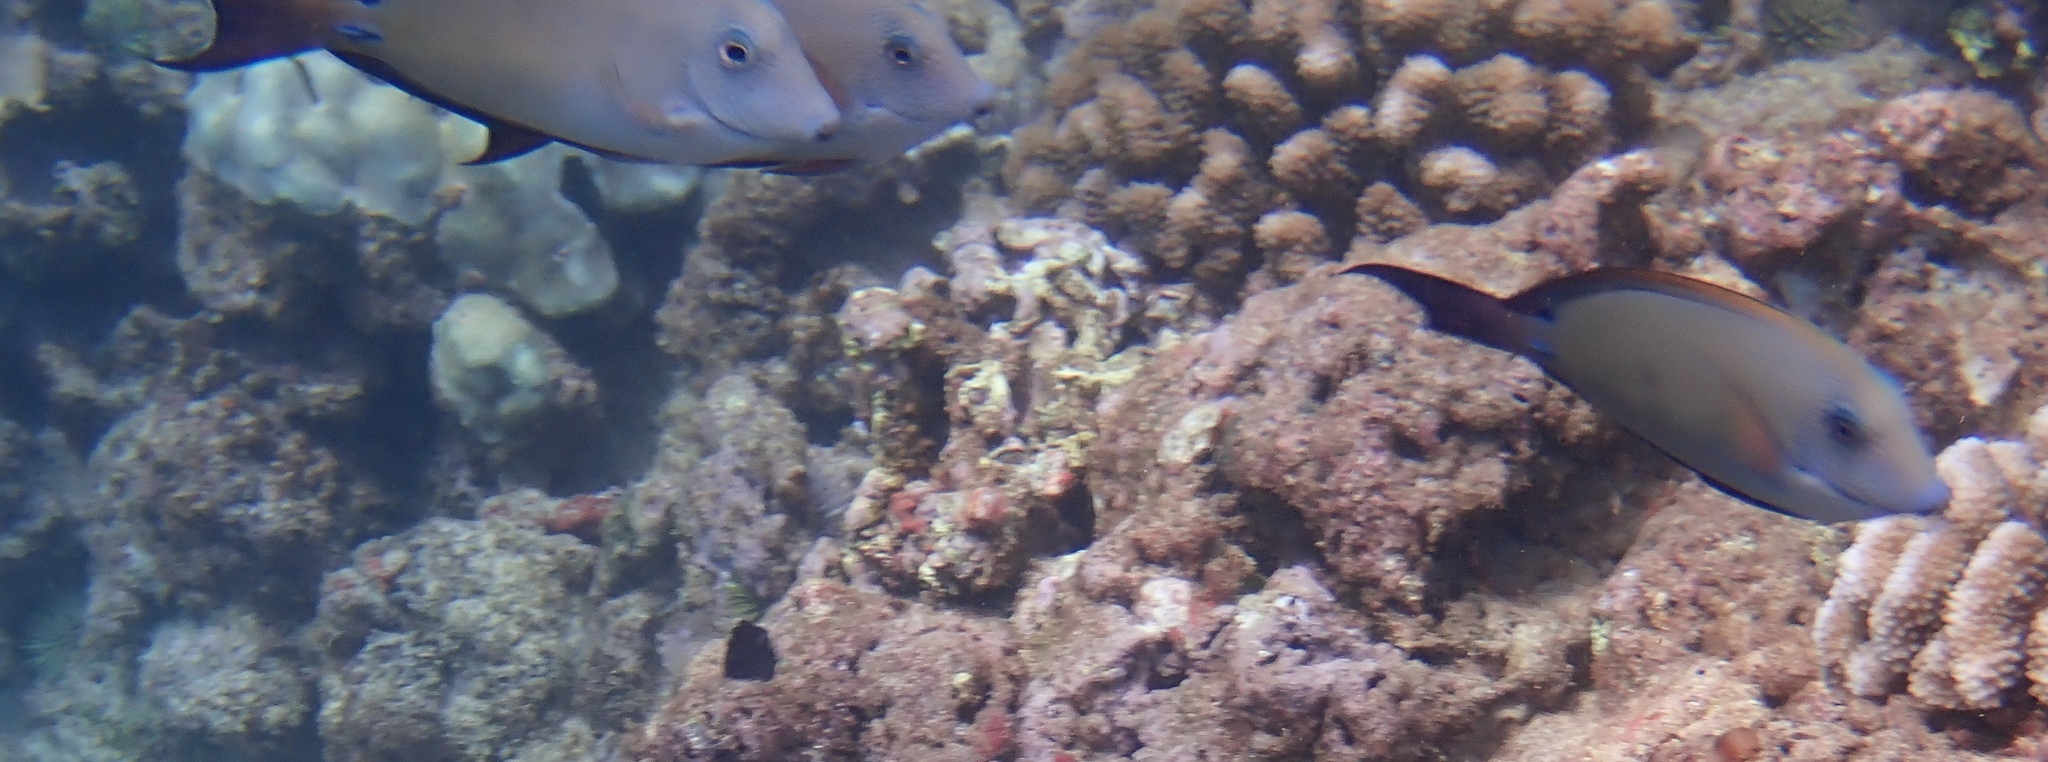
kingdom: Animalia
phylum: Chordata
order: Perciformes
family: Acanthuridae
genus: Acanthurus
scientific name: Acanthurus nigrofuscus
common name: Blackspot surgeonfish
